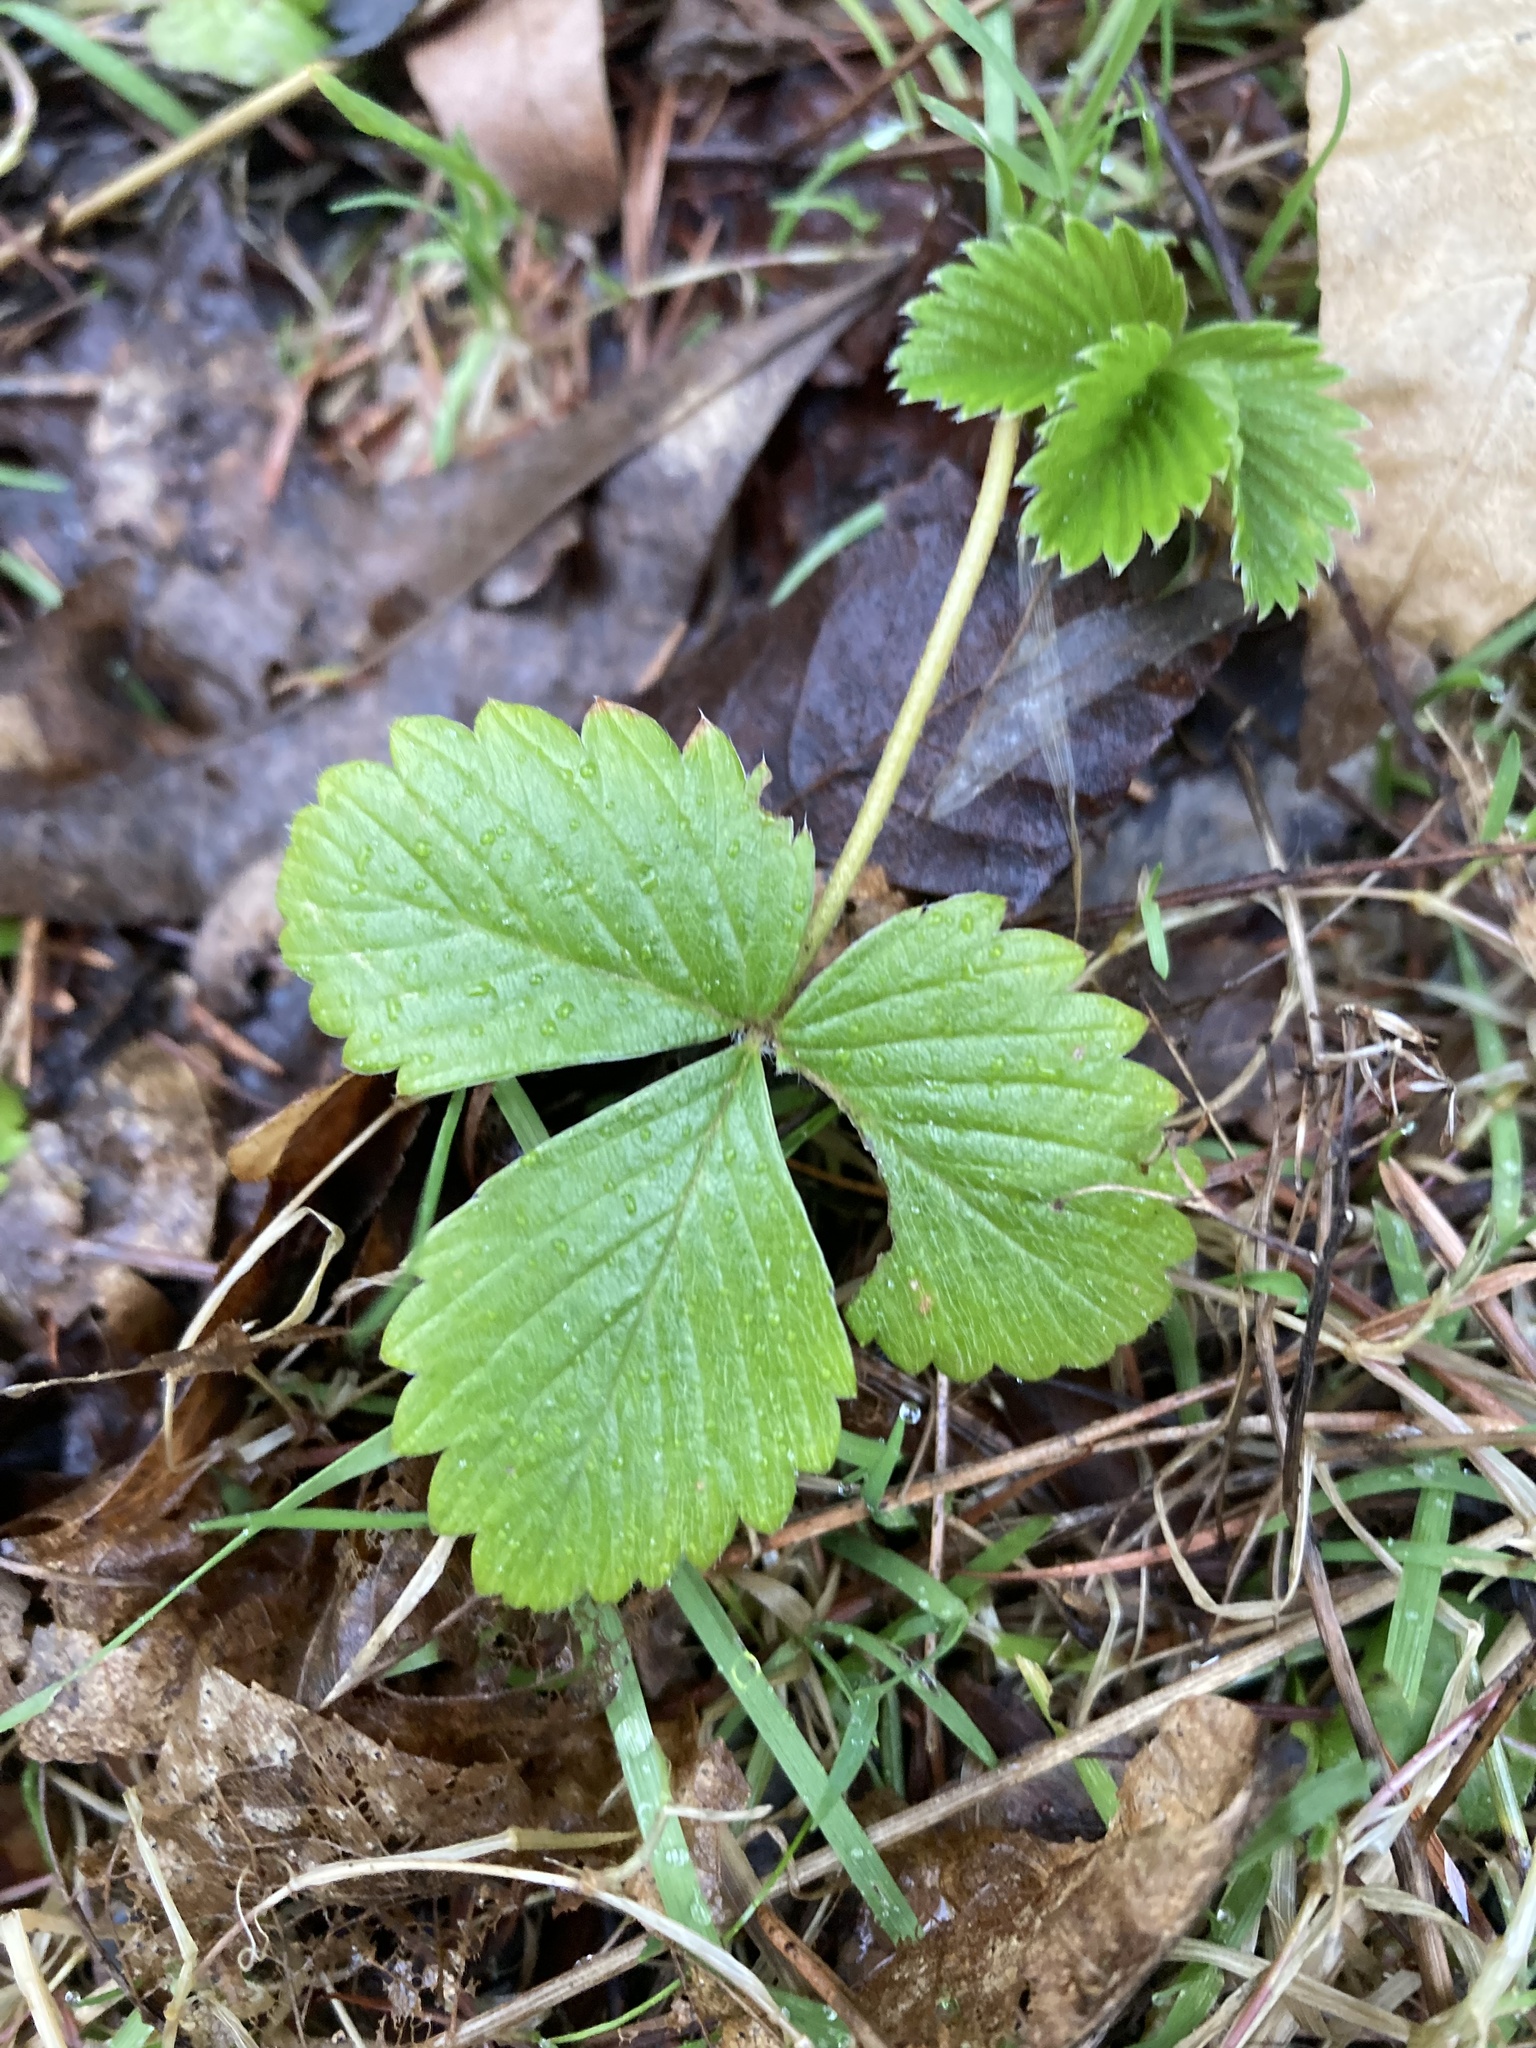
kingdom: Plantae
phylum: Tracheophyta
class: Magnoliopsida
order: Rosales
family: Rosaceae
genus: Fragaria
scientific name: Fragaria vesca
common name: Wild strawberry
